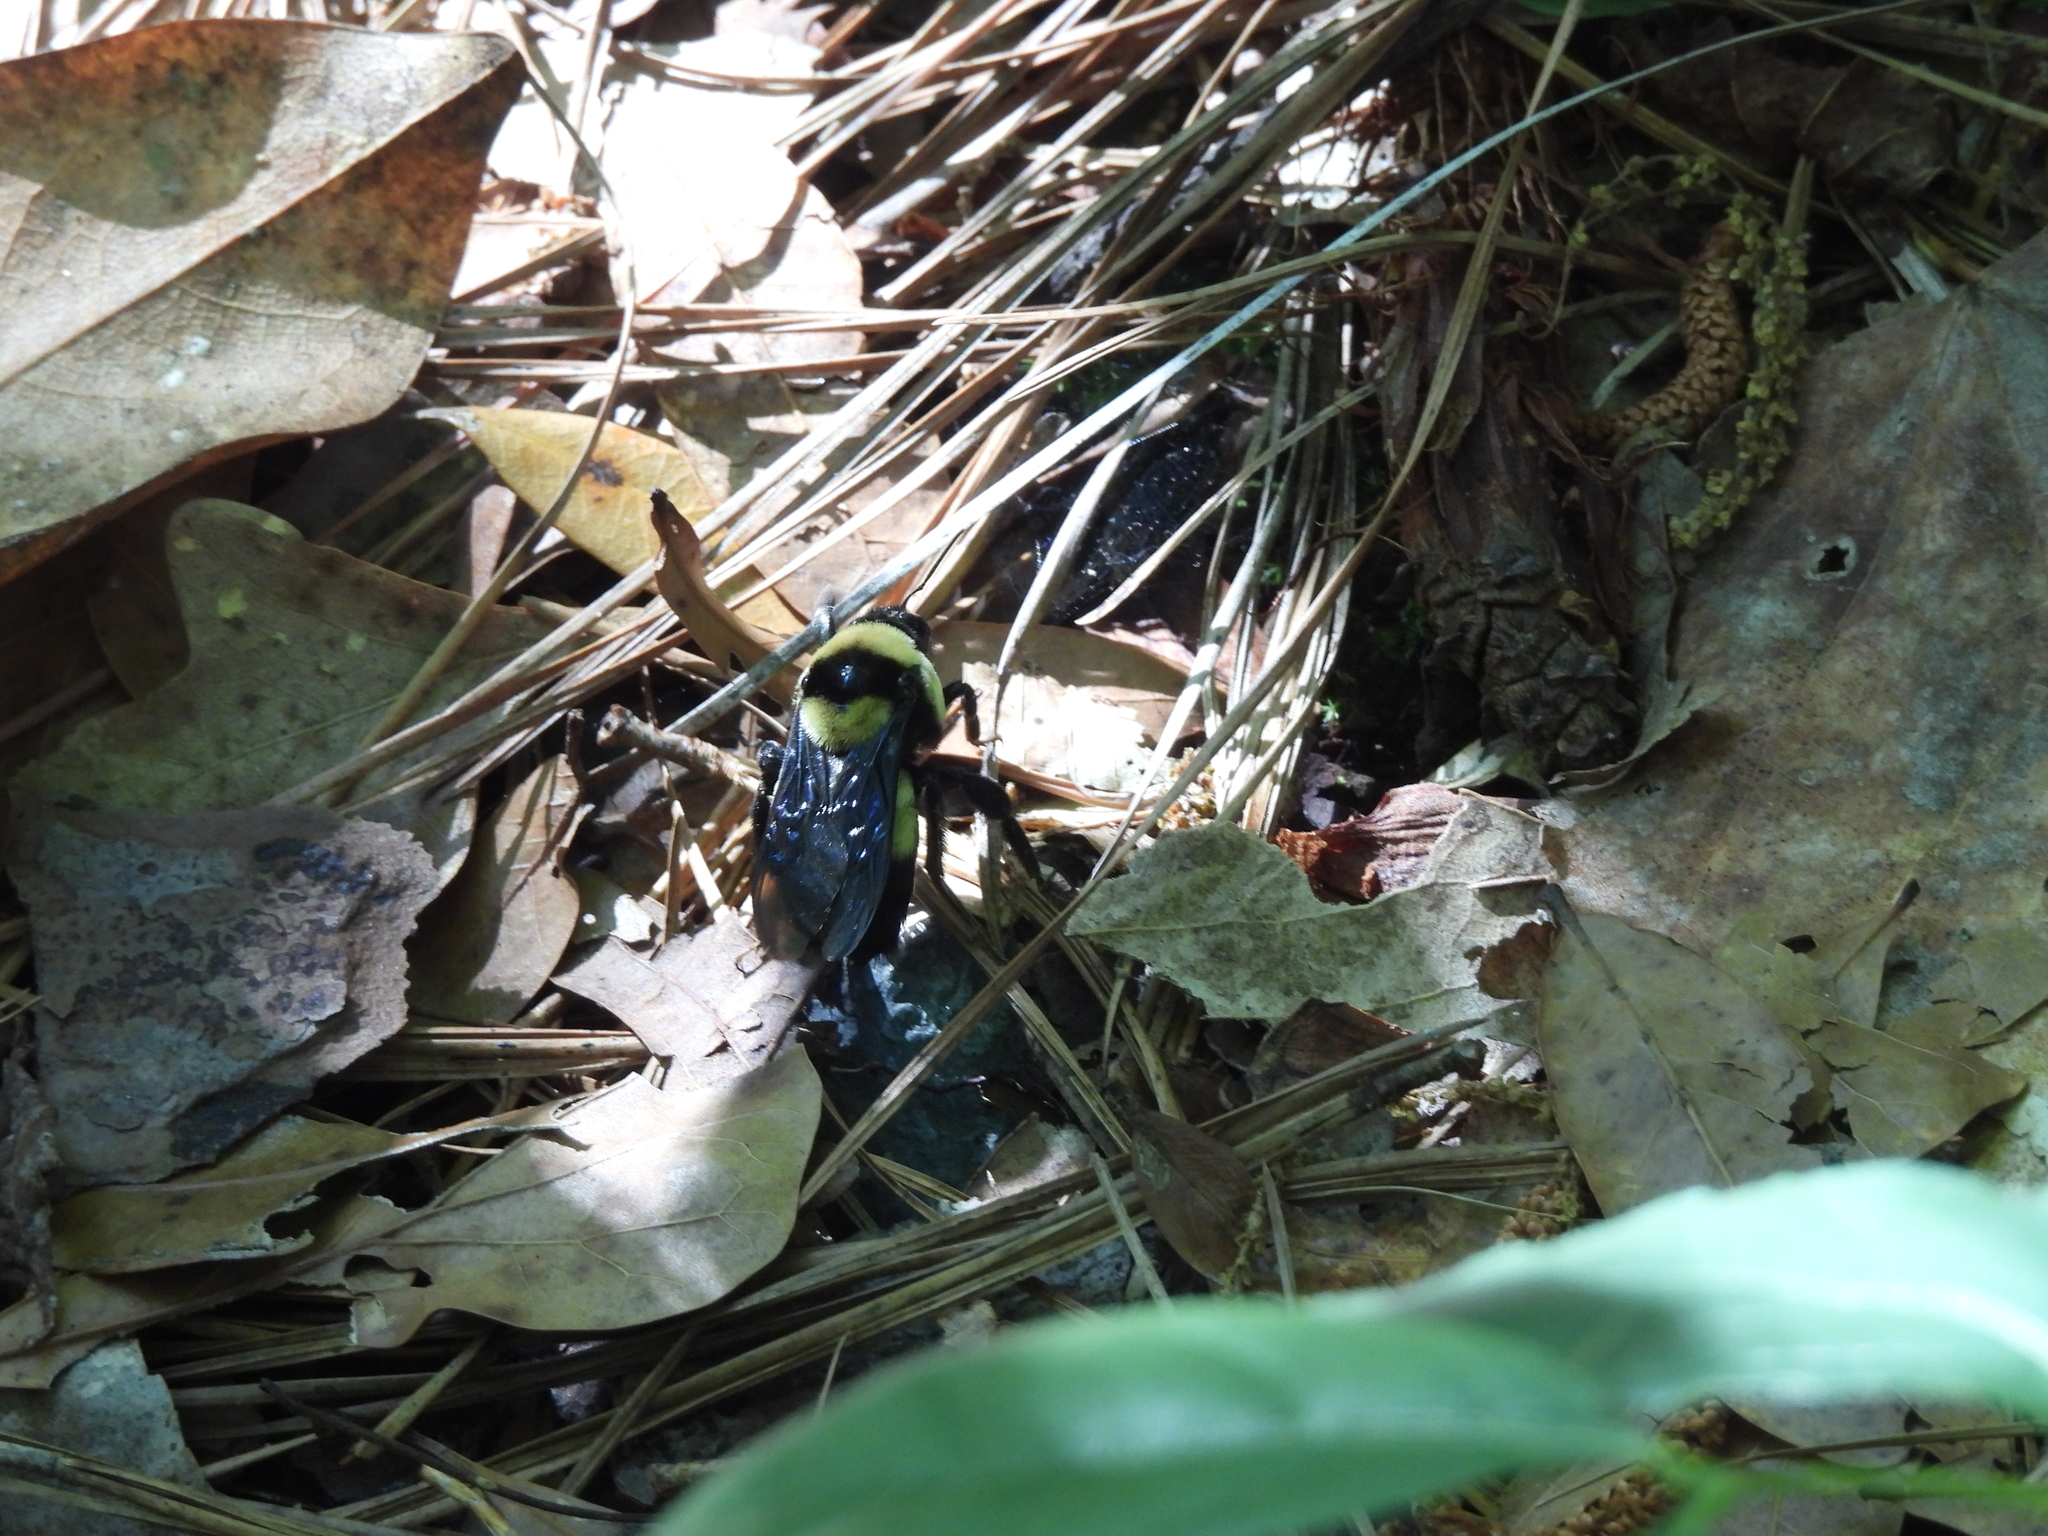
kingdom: Animalia
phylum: Arthropoda
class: Insecta
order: Hymenoptera
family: Apidae
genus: Bombus
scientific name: Bombus fraternus
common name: Southern plains bumble bee
